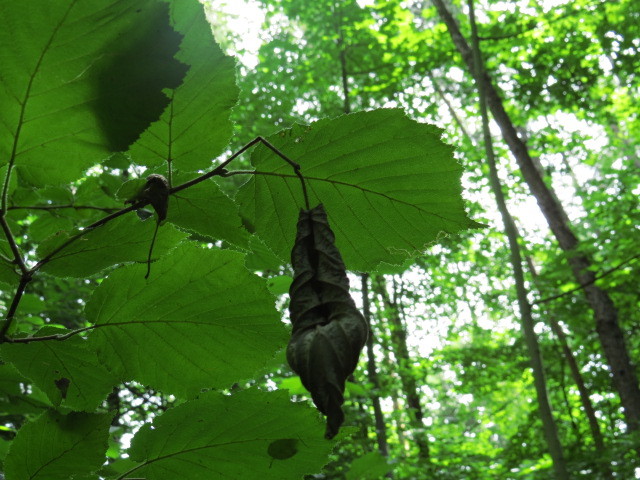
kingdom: Plantae
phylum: Tracheophyta
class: Magnoliopsida
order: Fagales
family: Betulaceae
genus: Corylus
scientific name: Corylus avellana
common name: European hazel
